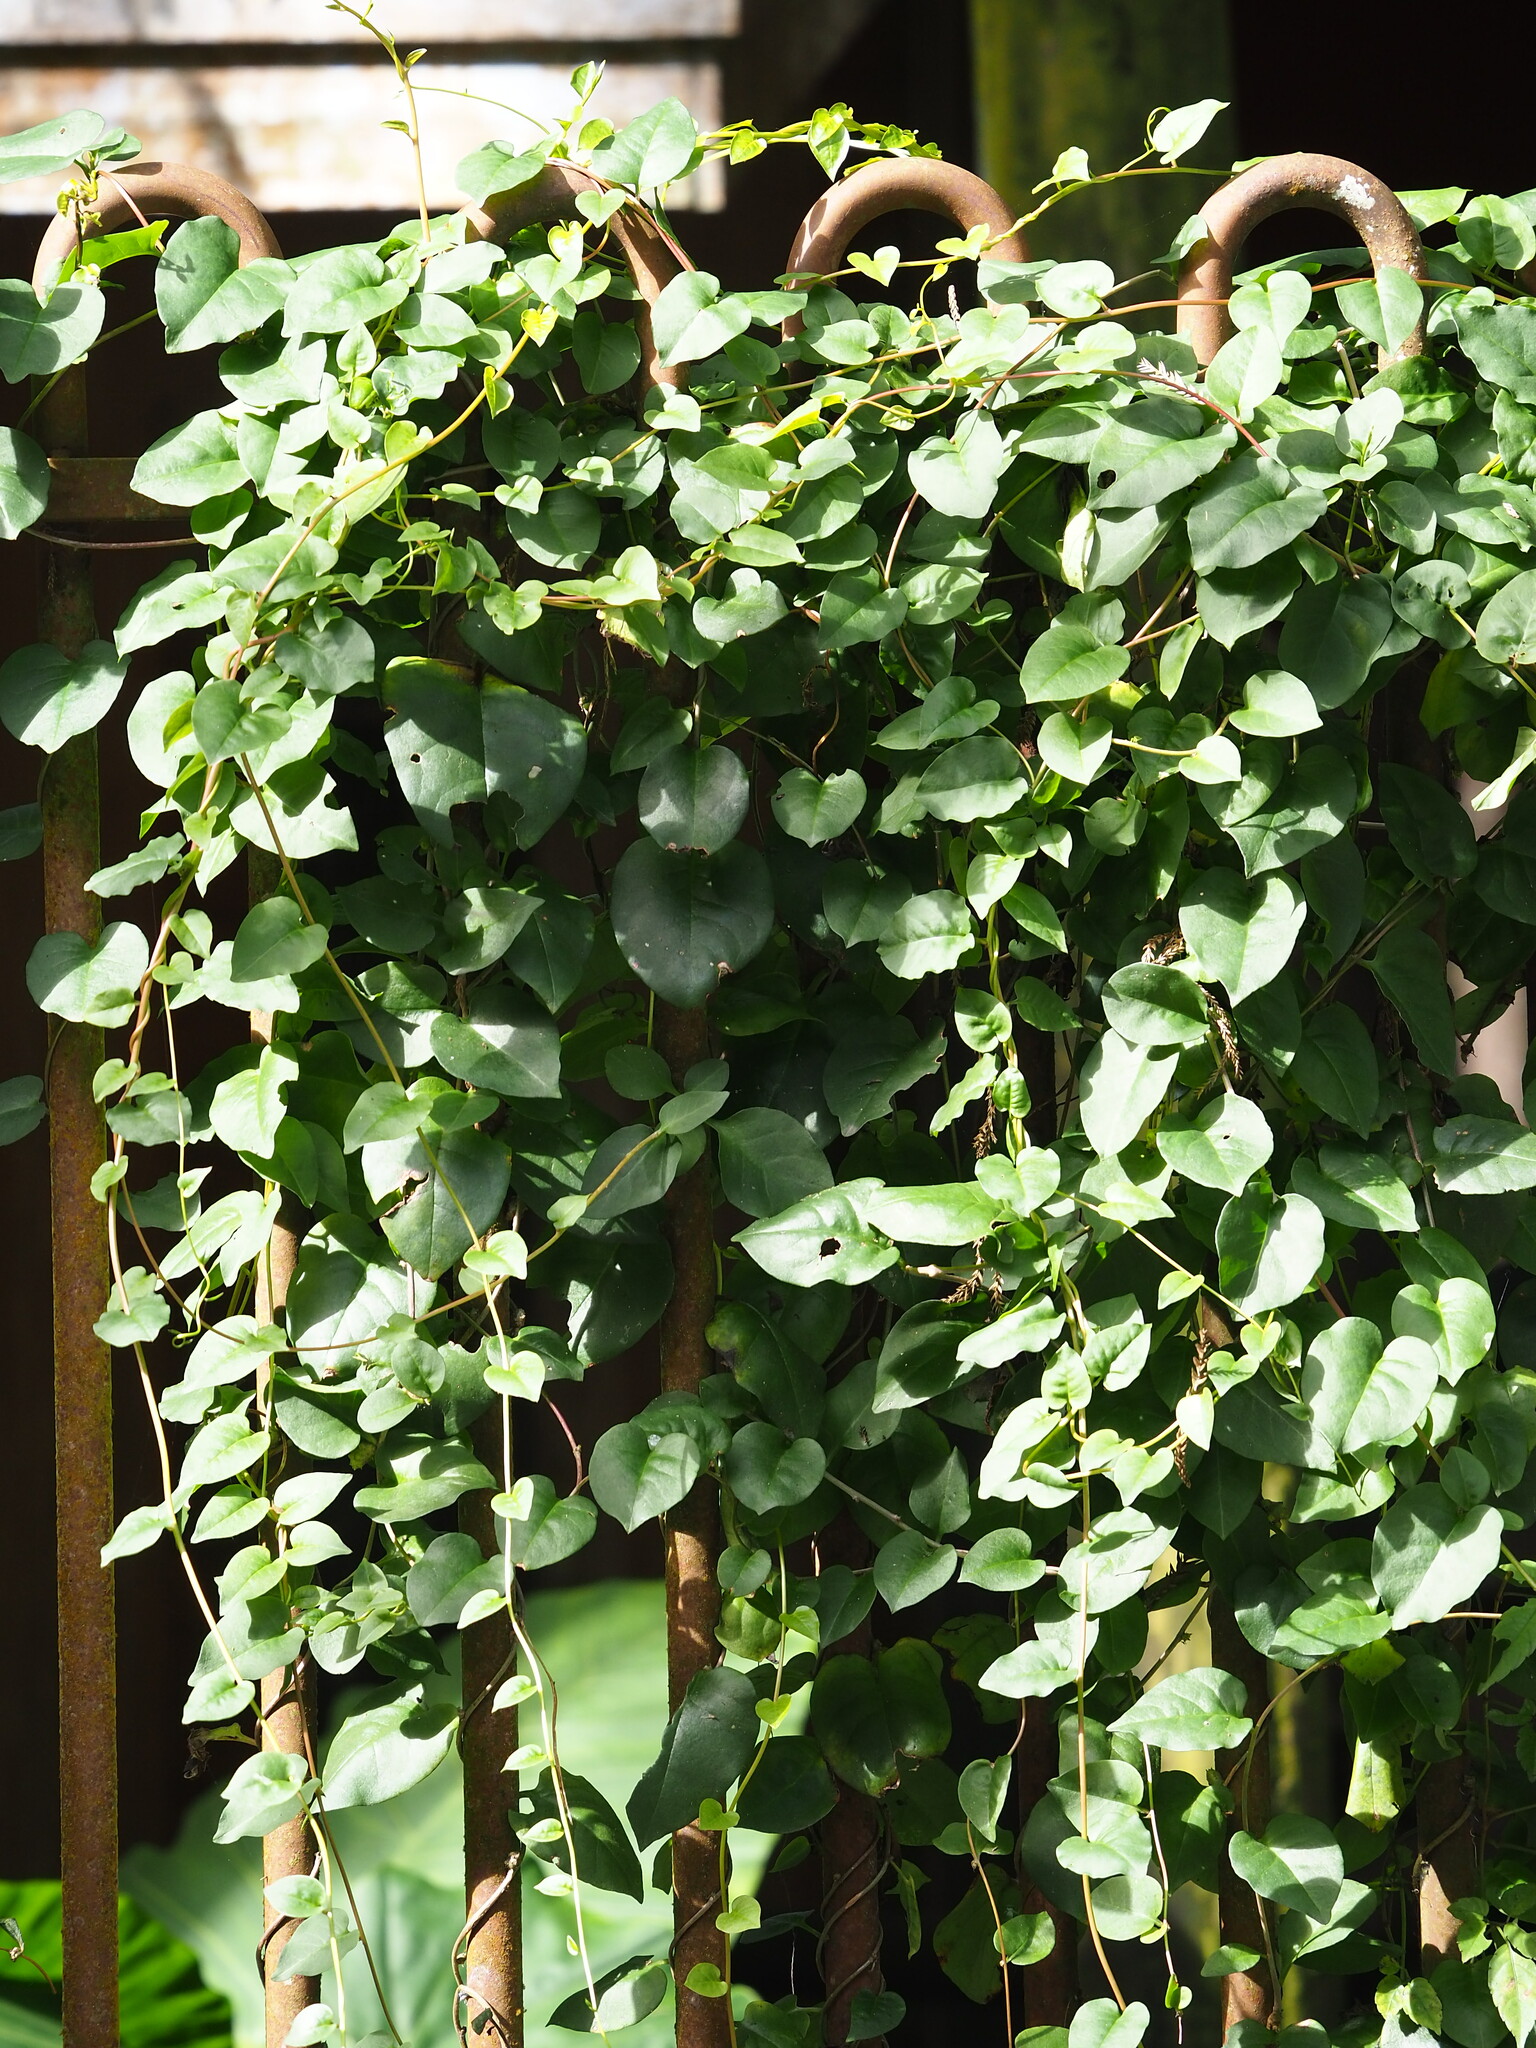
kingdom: Plantae
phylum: Tracheophyta
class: Magnoliopsida
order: Caryophyllales
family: Basellaceae
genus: Anredera
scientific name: Anredera cordifolia
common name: Heartleaf madeiravine
